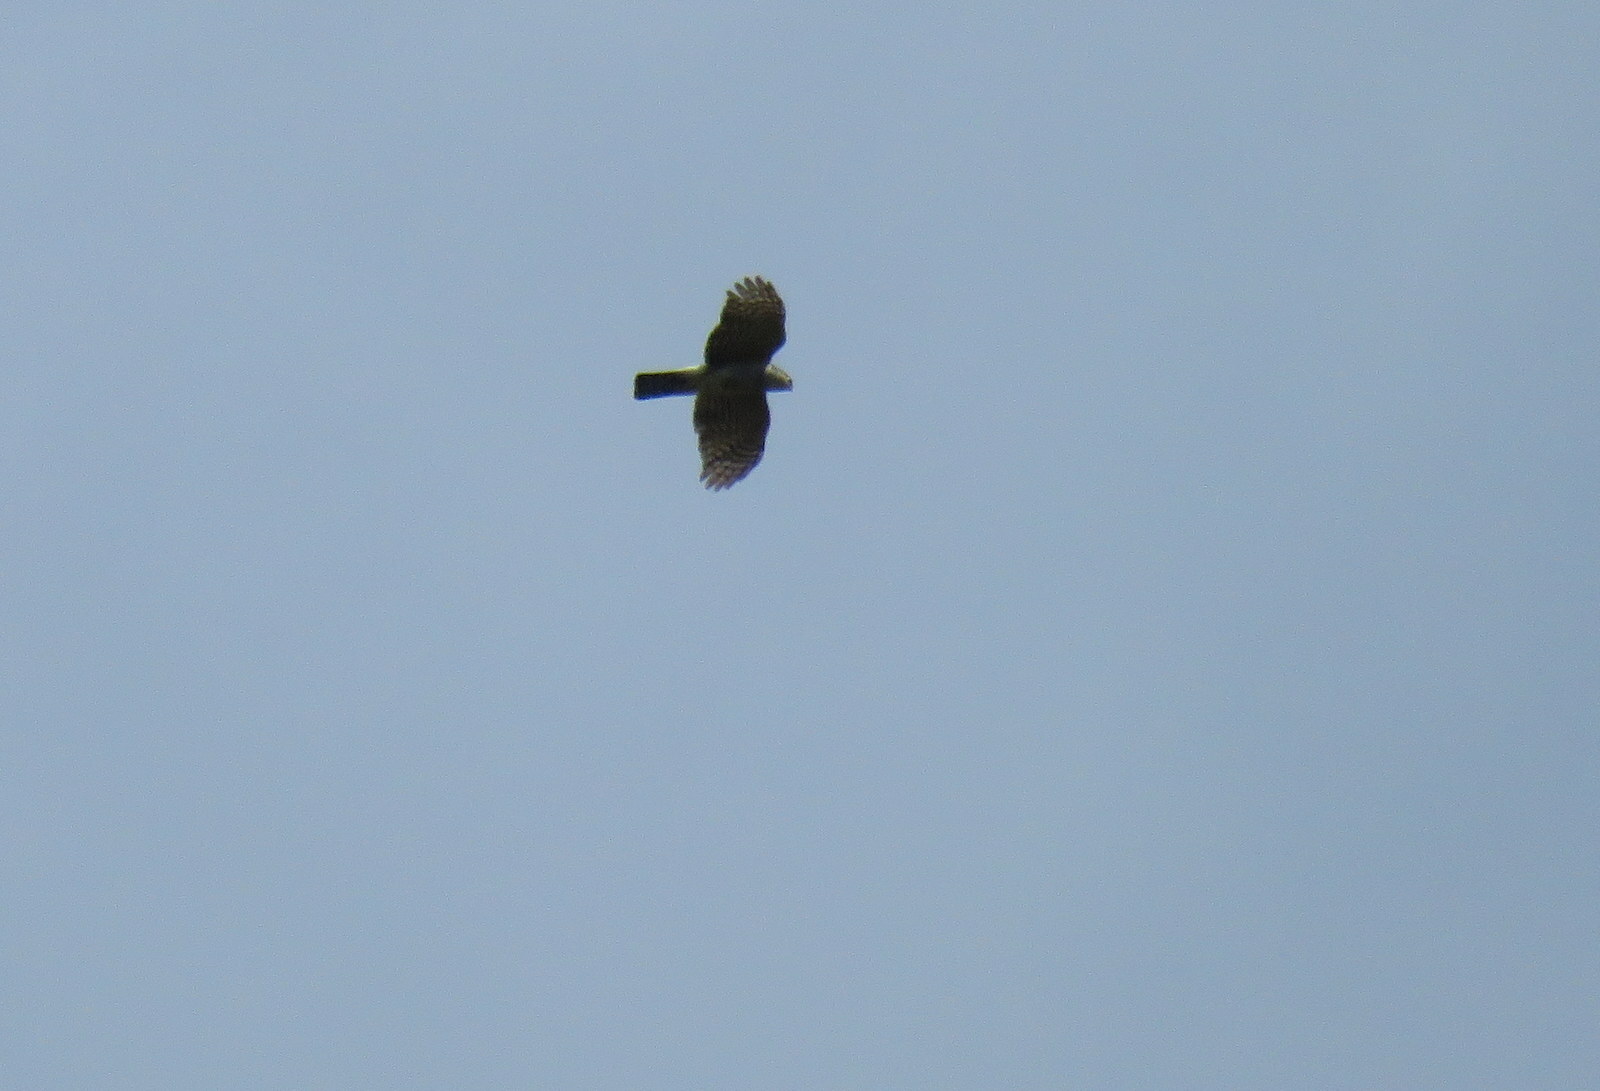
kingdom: Animalia
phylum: Chordata
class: Aves
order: Accipitriformes
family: Accipitridae
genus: Accipiter
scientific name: Accipiter striatus
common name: Sharp-shinned hawk
